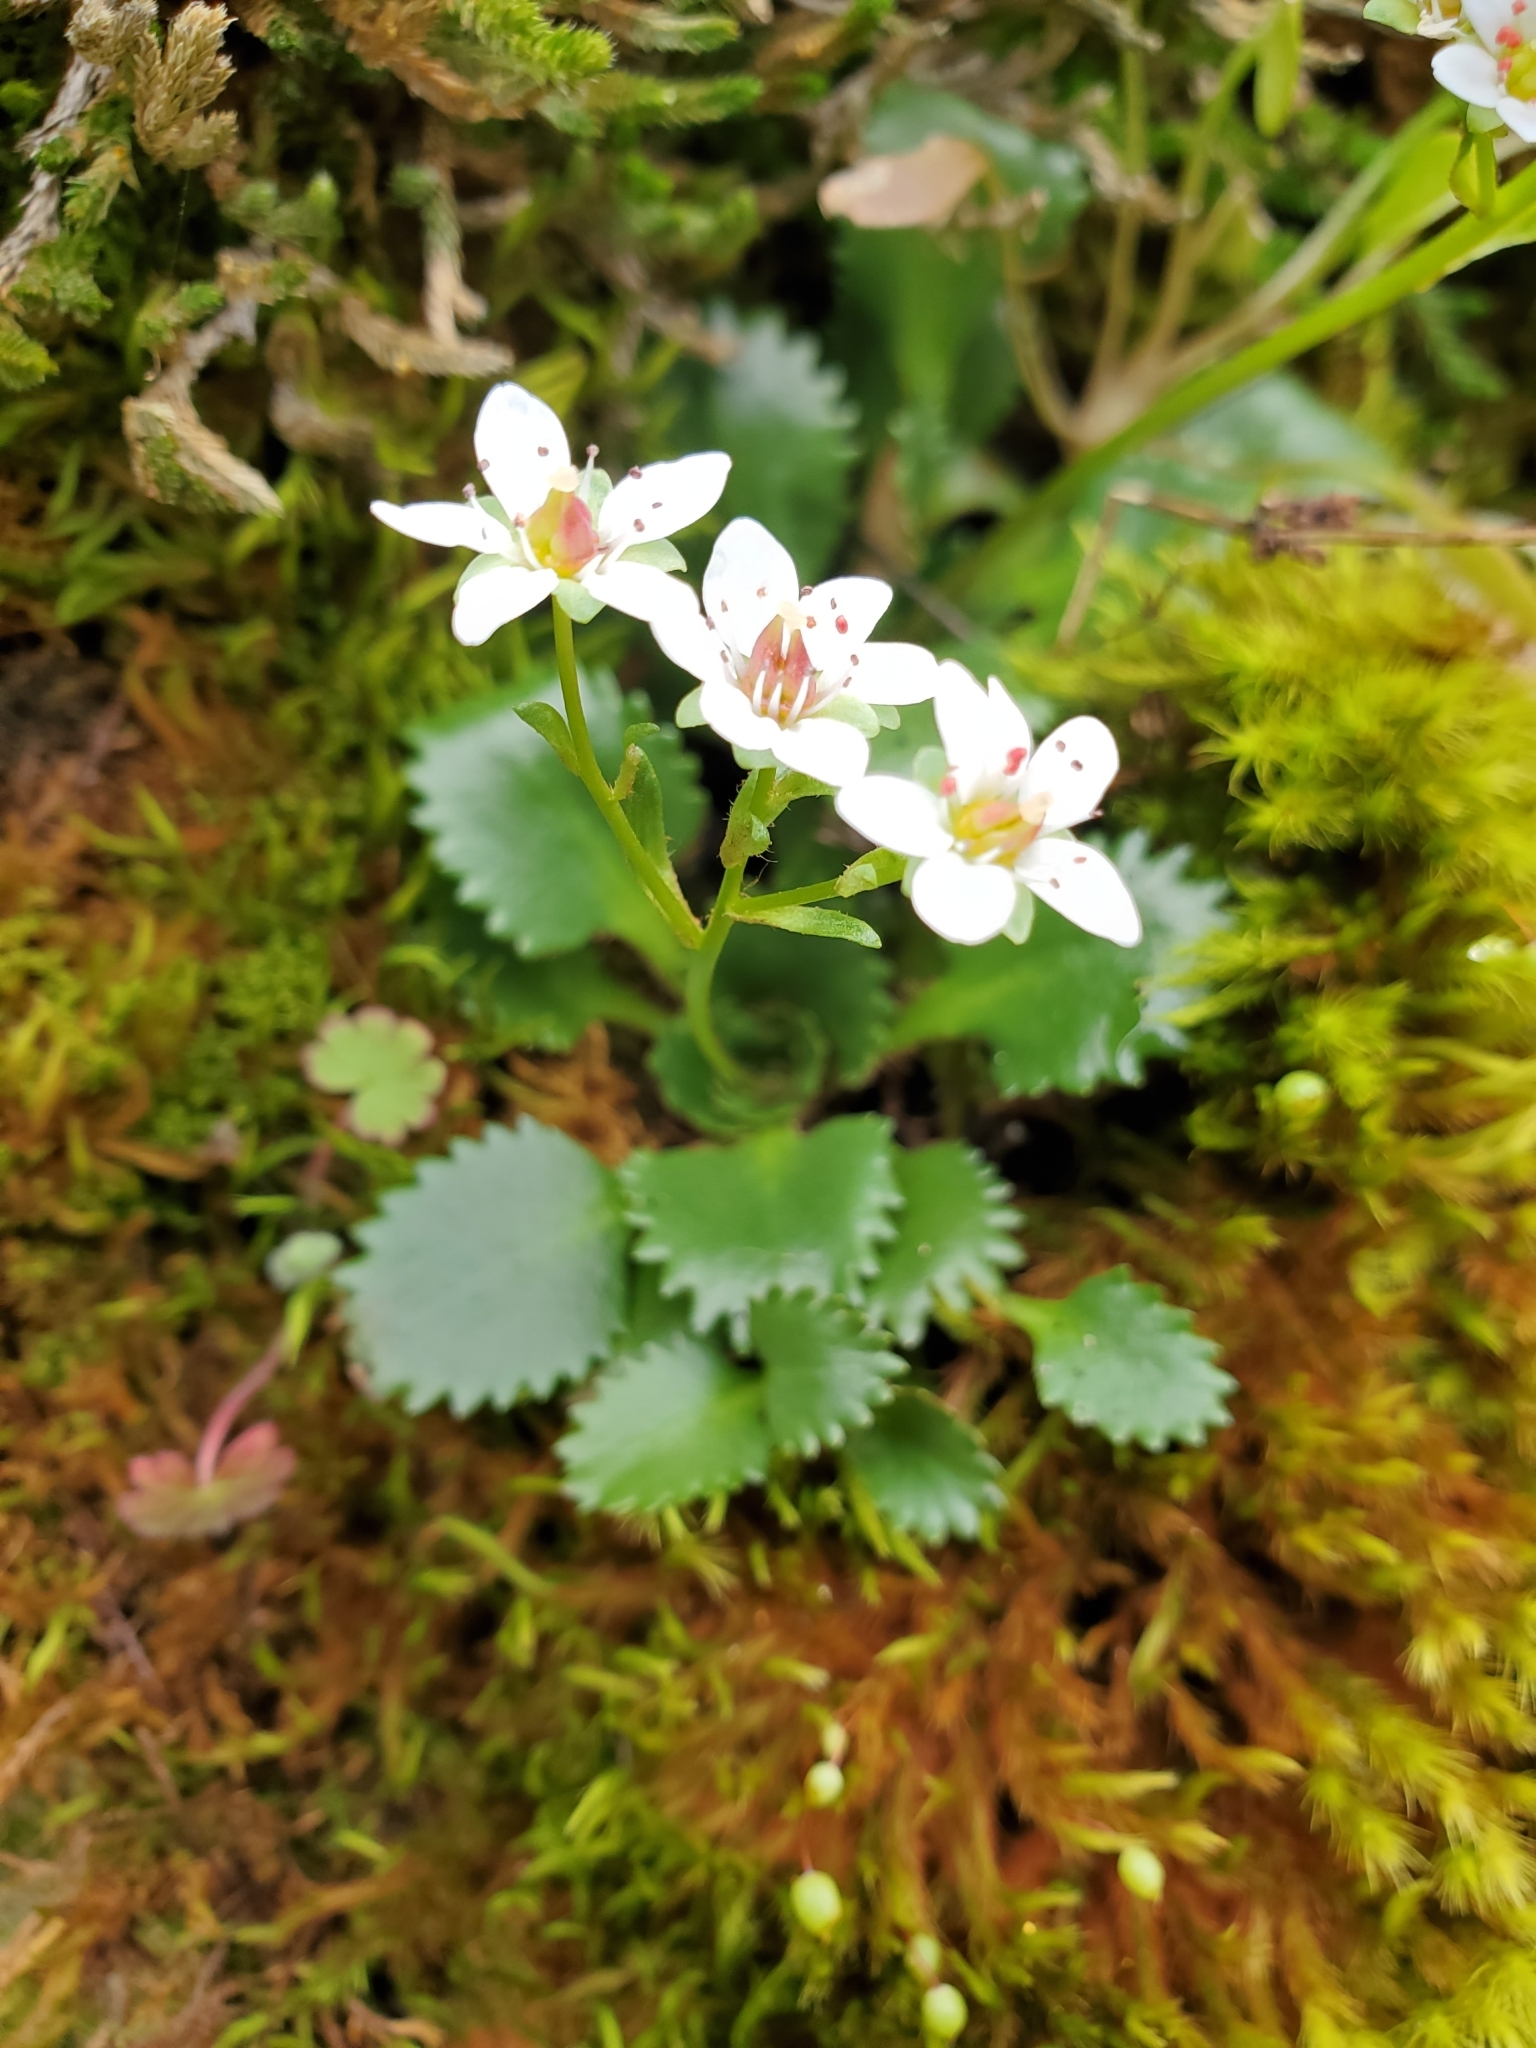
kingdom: Plantae
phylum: Tracheophyta
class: Magnoliopsida
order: Saxifragales
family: Saxifragaceae
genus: Micranthes
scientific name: Micranthes rufidula
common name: Rustyhair saxifrage
